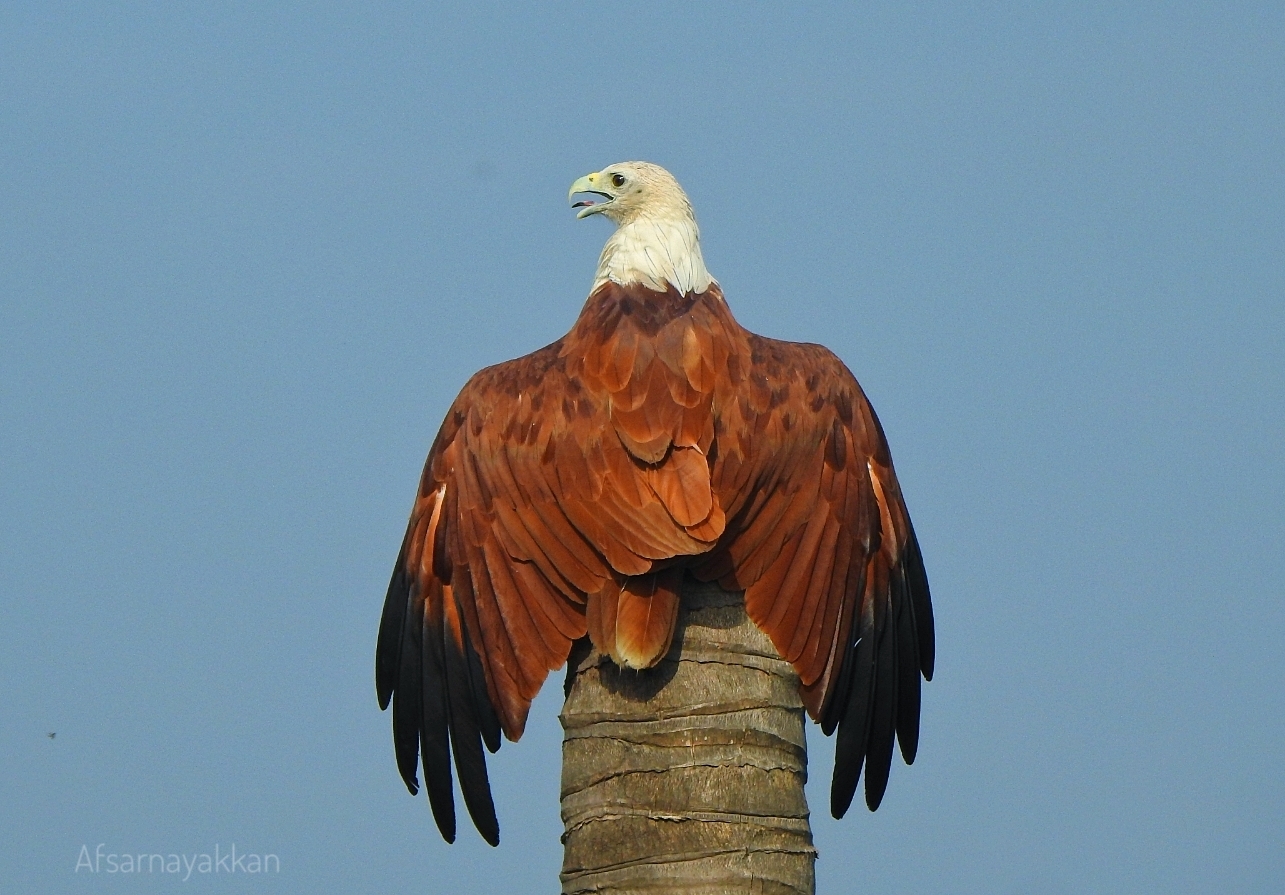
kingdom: Animalia
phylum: Chordata
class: Aves
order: Accipitriformes
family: Accipitridae
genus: Haliastur
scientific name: Haliastur indus
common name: Brahminy kite
